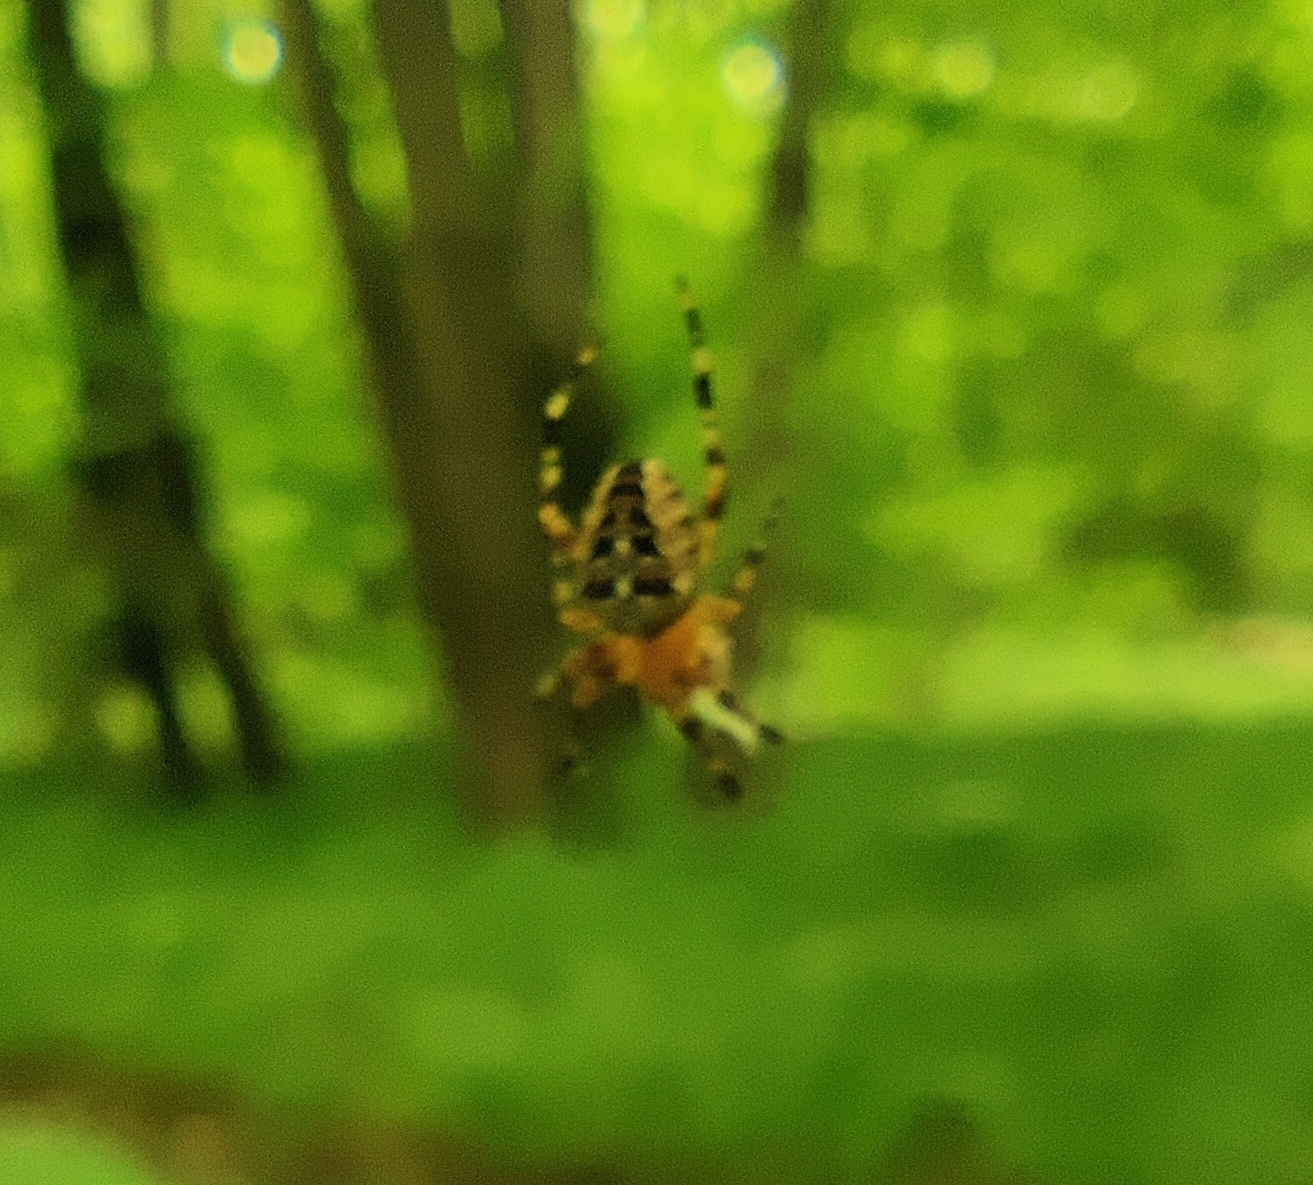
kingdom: Animalia
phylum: Arthropoda
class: Arachnida
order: Araneae
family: Araneidae
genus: Araneus
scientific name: Araneus diadematus
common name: Cross orbweaver
